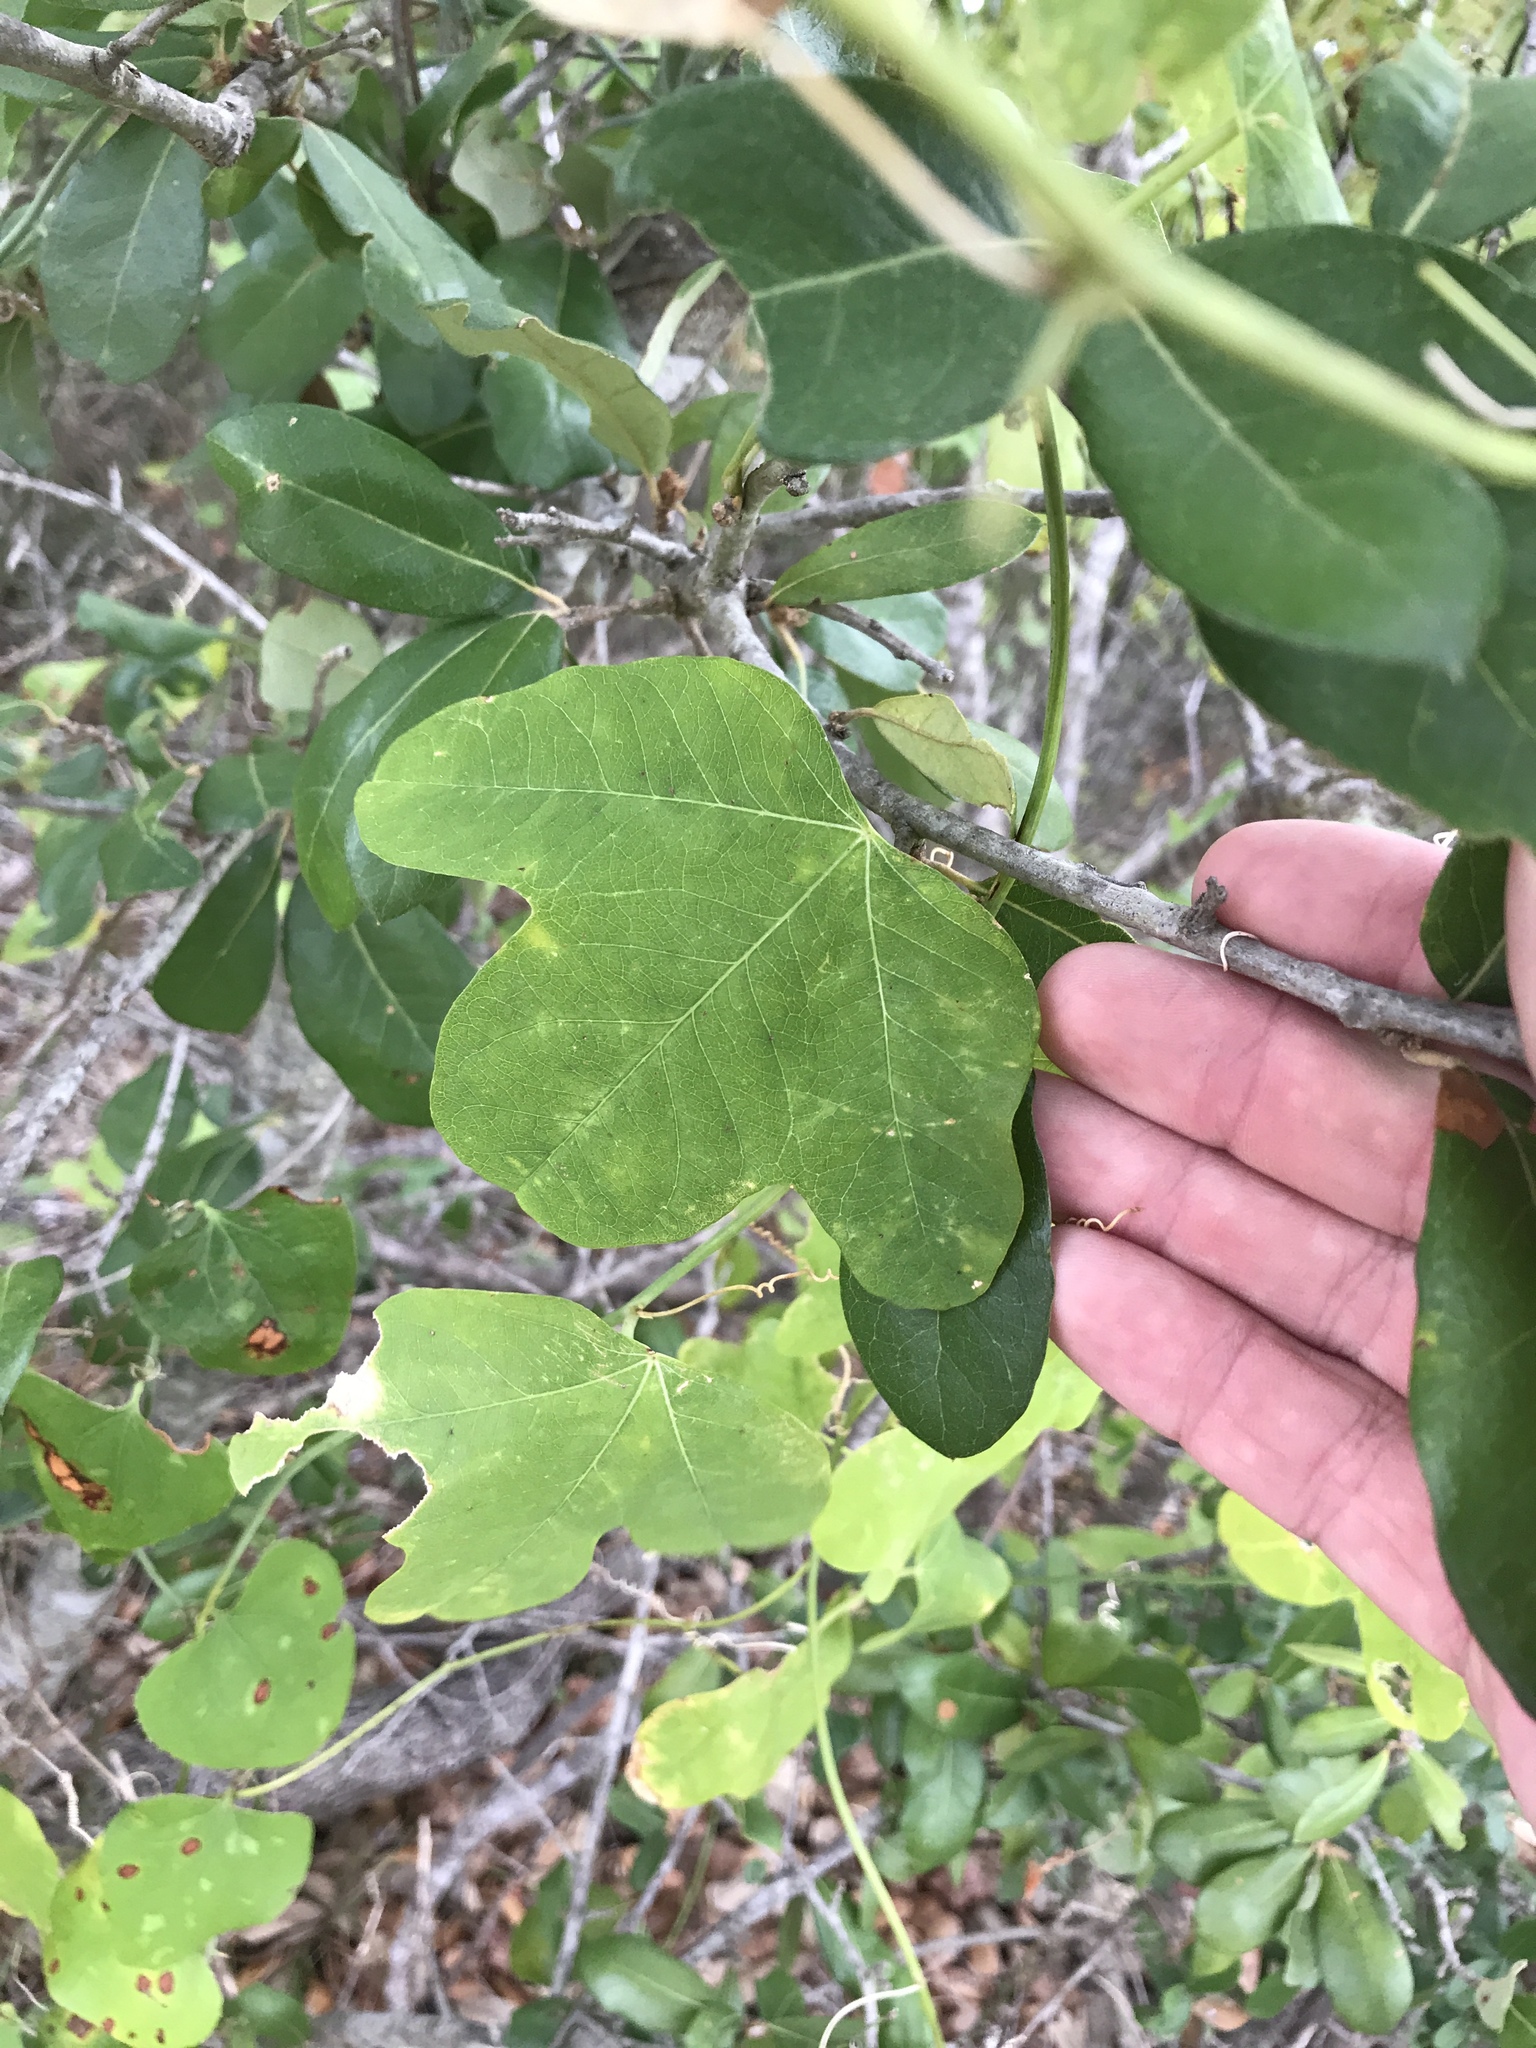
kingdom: Plantae
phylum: Tracheophyta
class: Magnoliopsida
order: Malpighiales
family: Passifloraceae
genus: Passiflora
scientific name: Passiflora lutea
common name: Yellow passionflower
